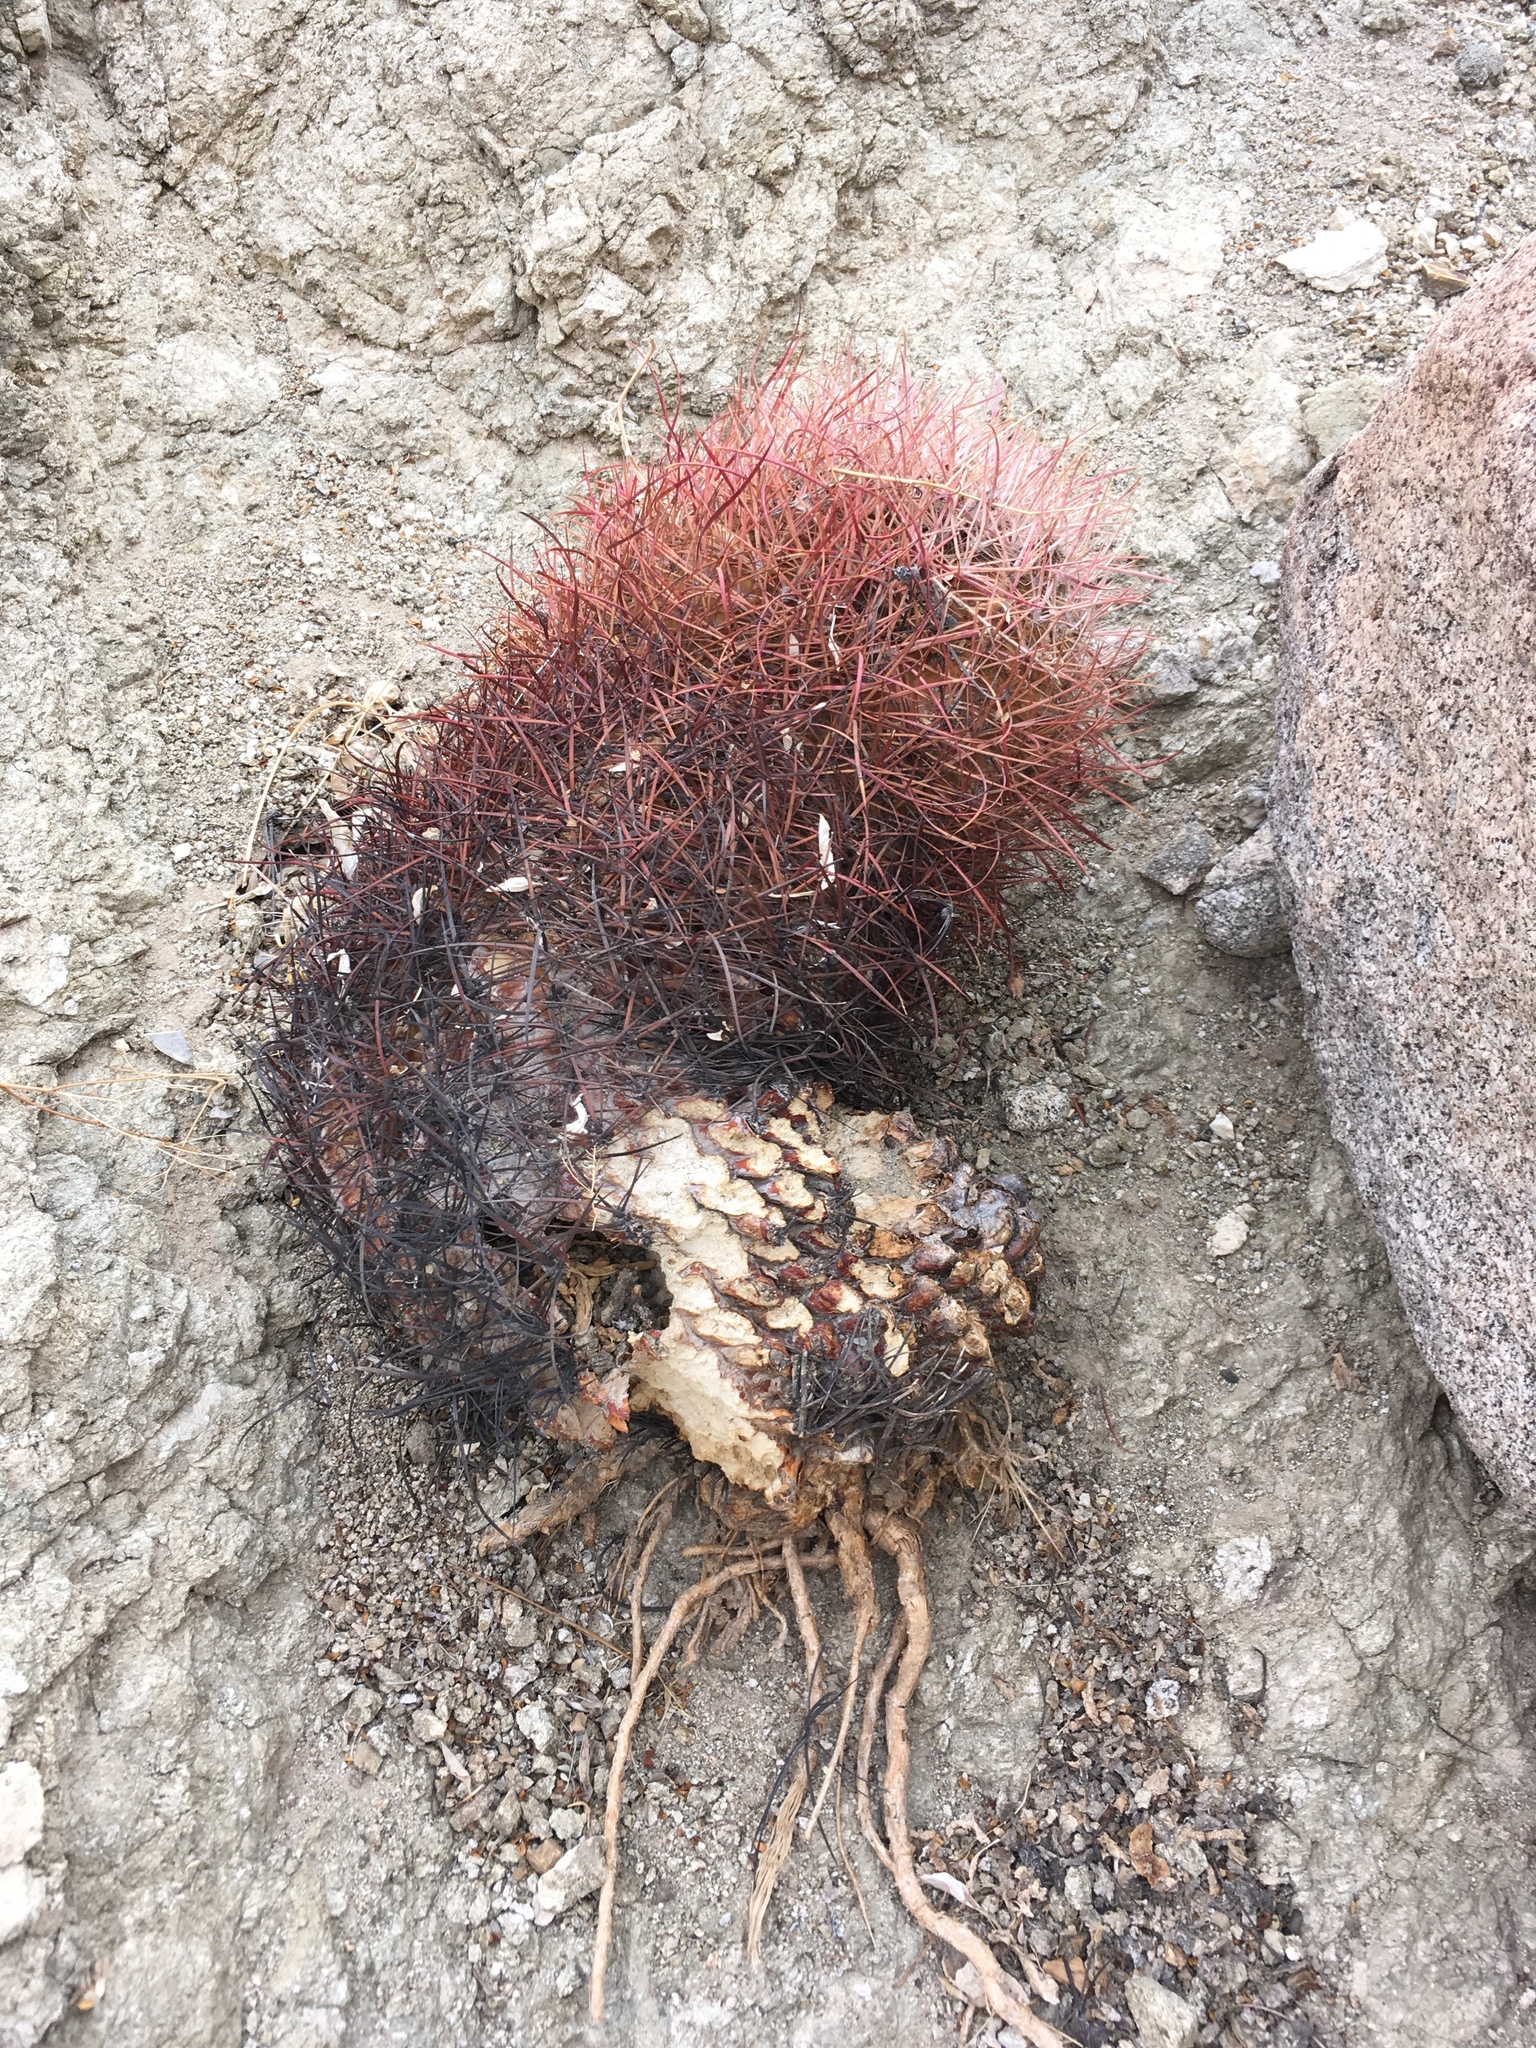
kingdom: Plantae
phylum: Tracheophyta
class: Magnoliopsida
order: Caryophyllales
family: Cactaceae
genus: Ferocactus
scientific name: Ferocactus cylindraceus
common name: California barrel cactus
